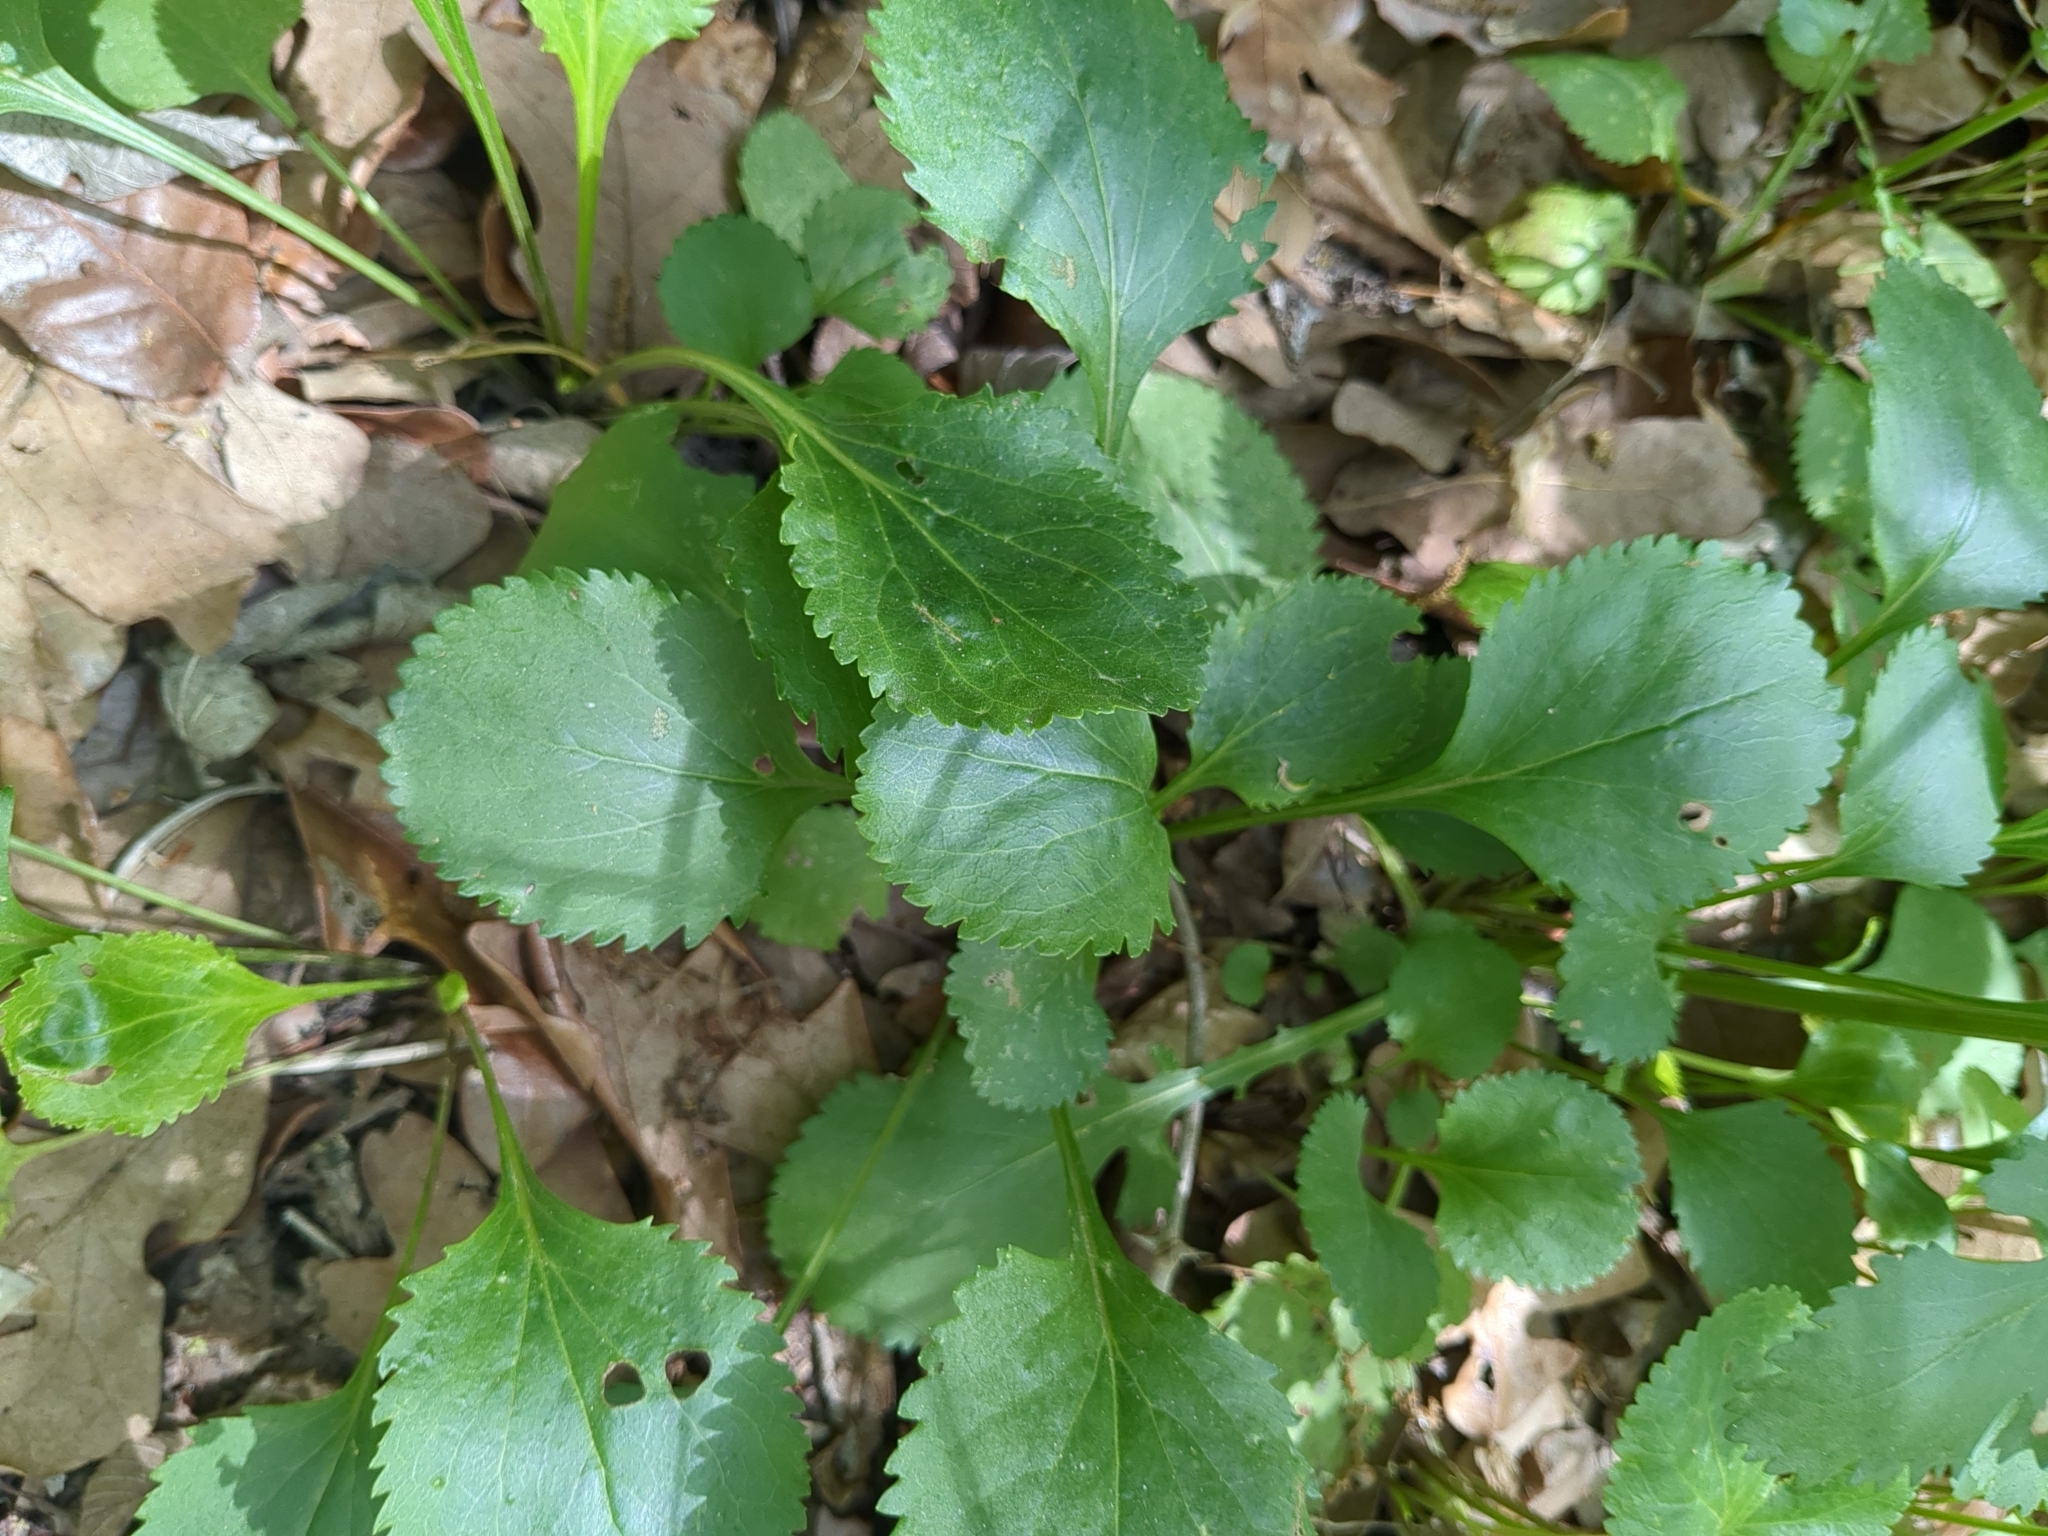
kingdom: Plantae
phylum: Tracheophyta
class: Magnoliopsida
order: Asterales
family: Asteraceae
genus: Packera
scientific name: Packera obovata
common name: Round-leaf ragwort
